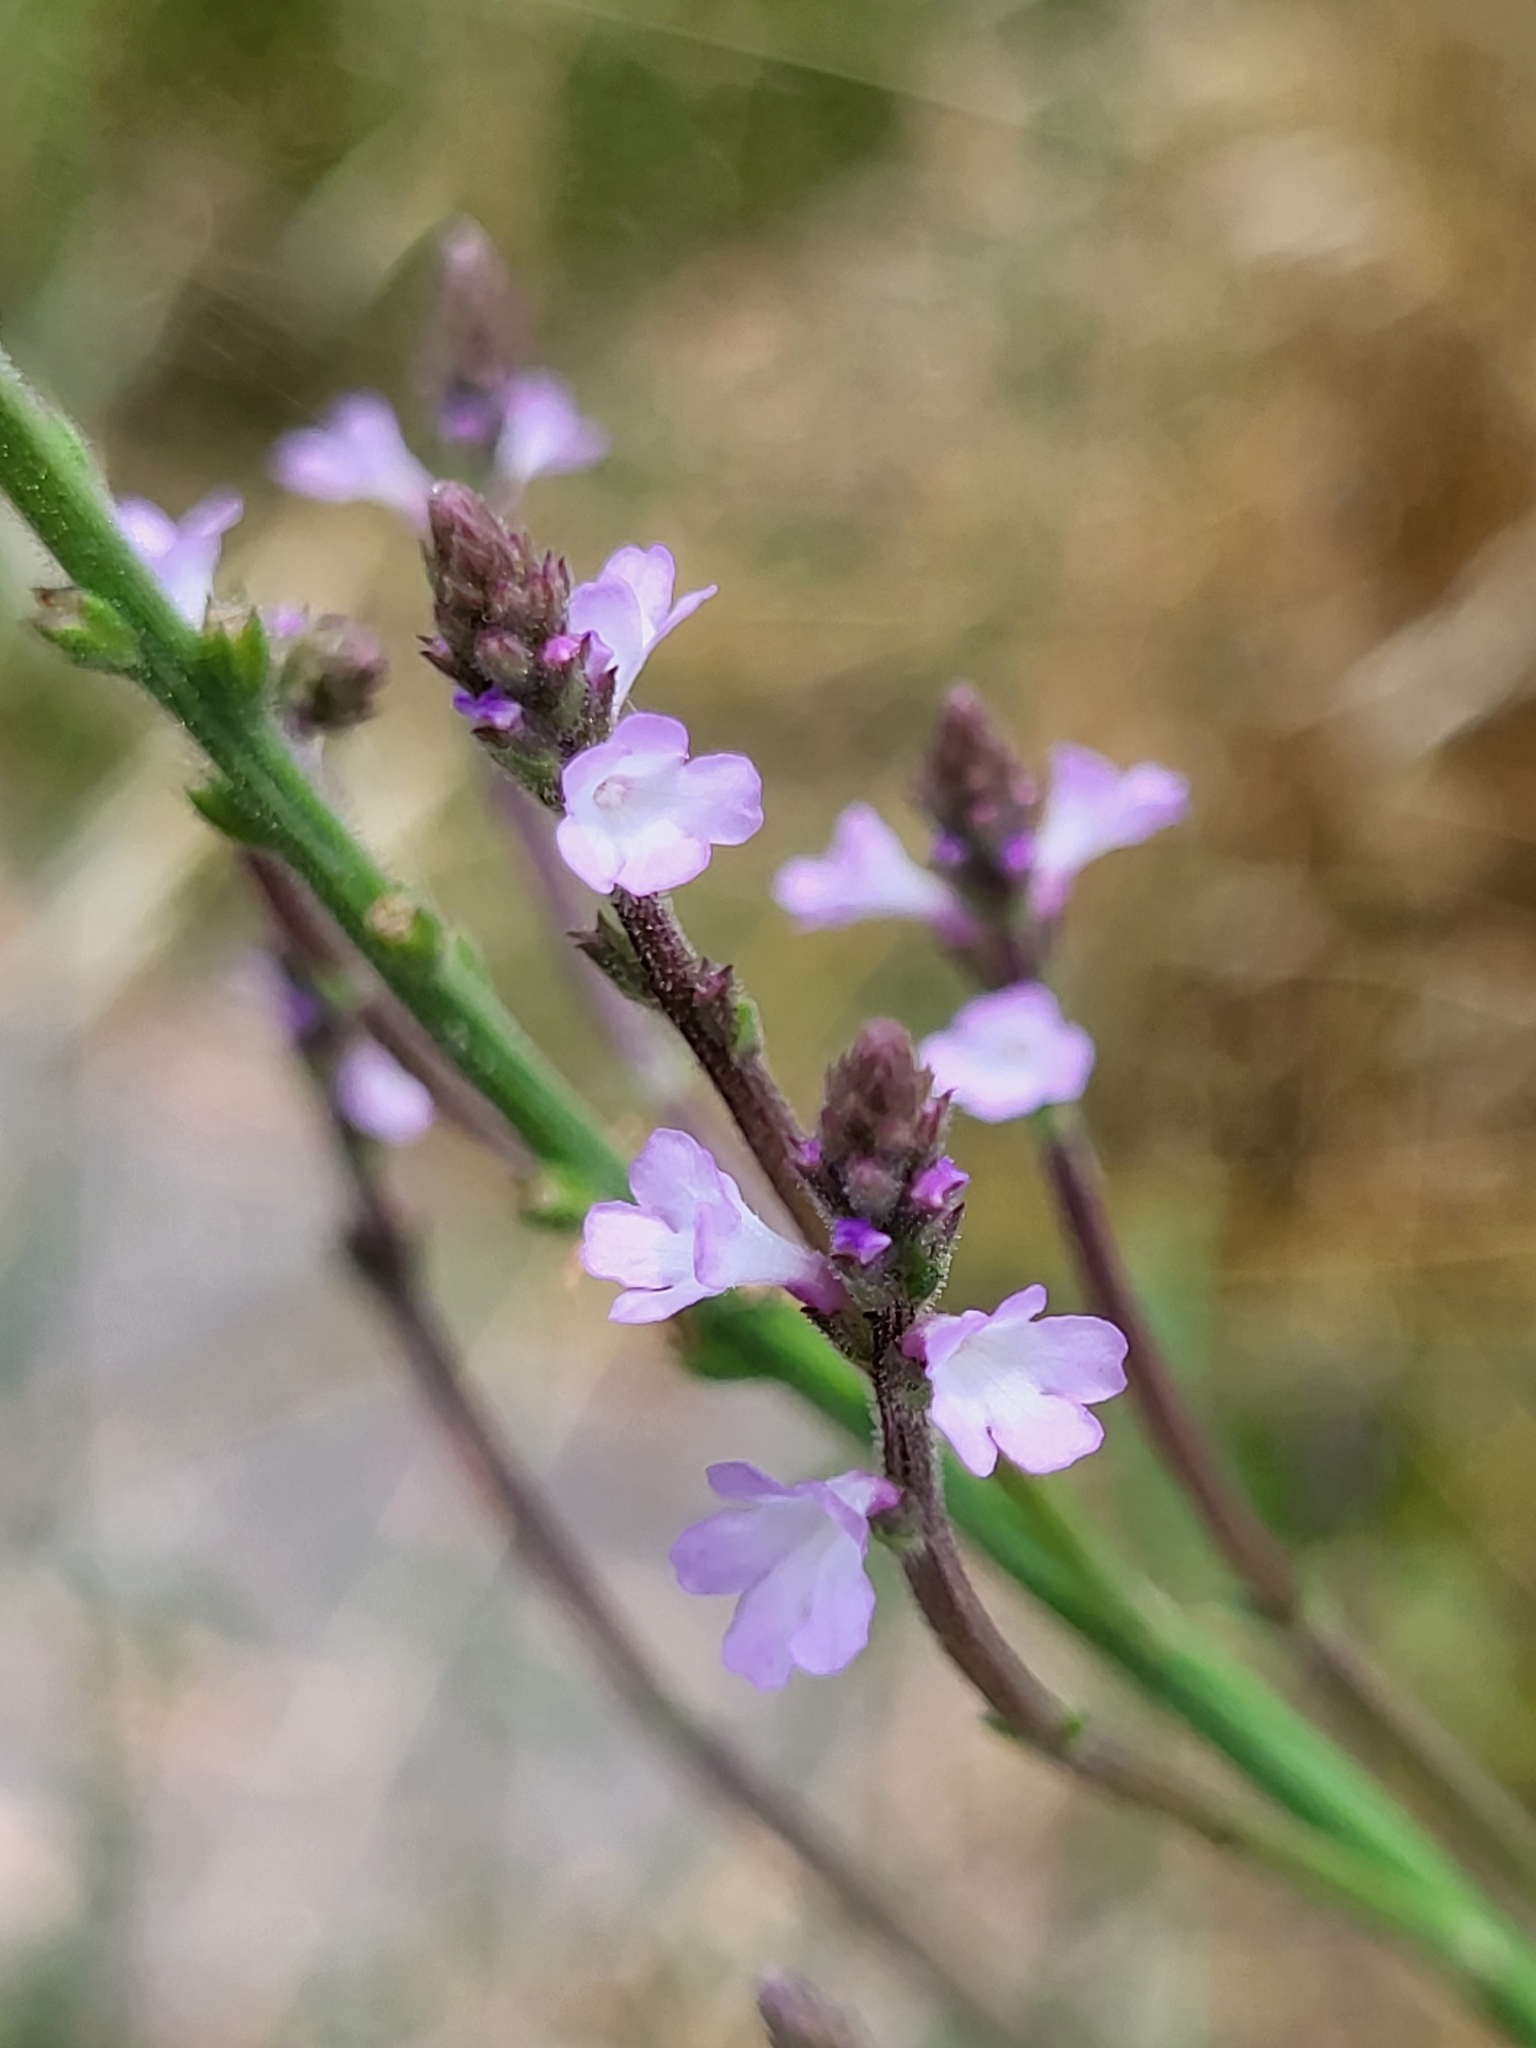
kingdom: Plantae
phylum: Tracheophyta
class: Magnoliopsida
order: Lamiales
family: Verbenaceae
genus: Verbena
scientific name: Verbena officinalis
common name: Vervain
